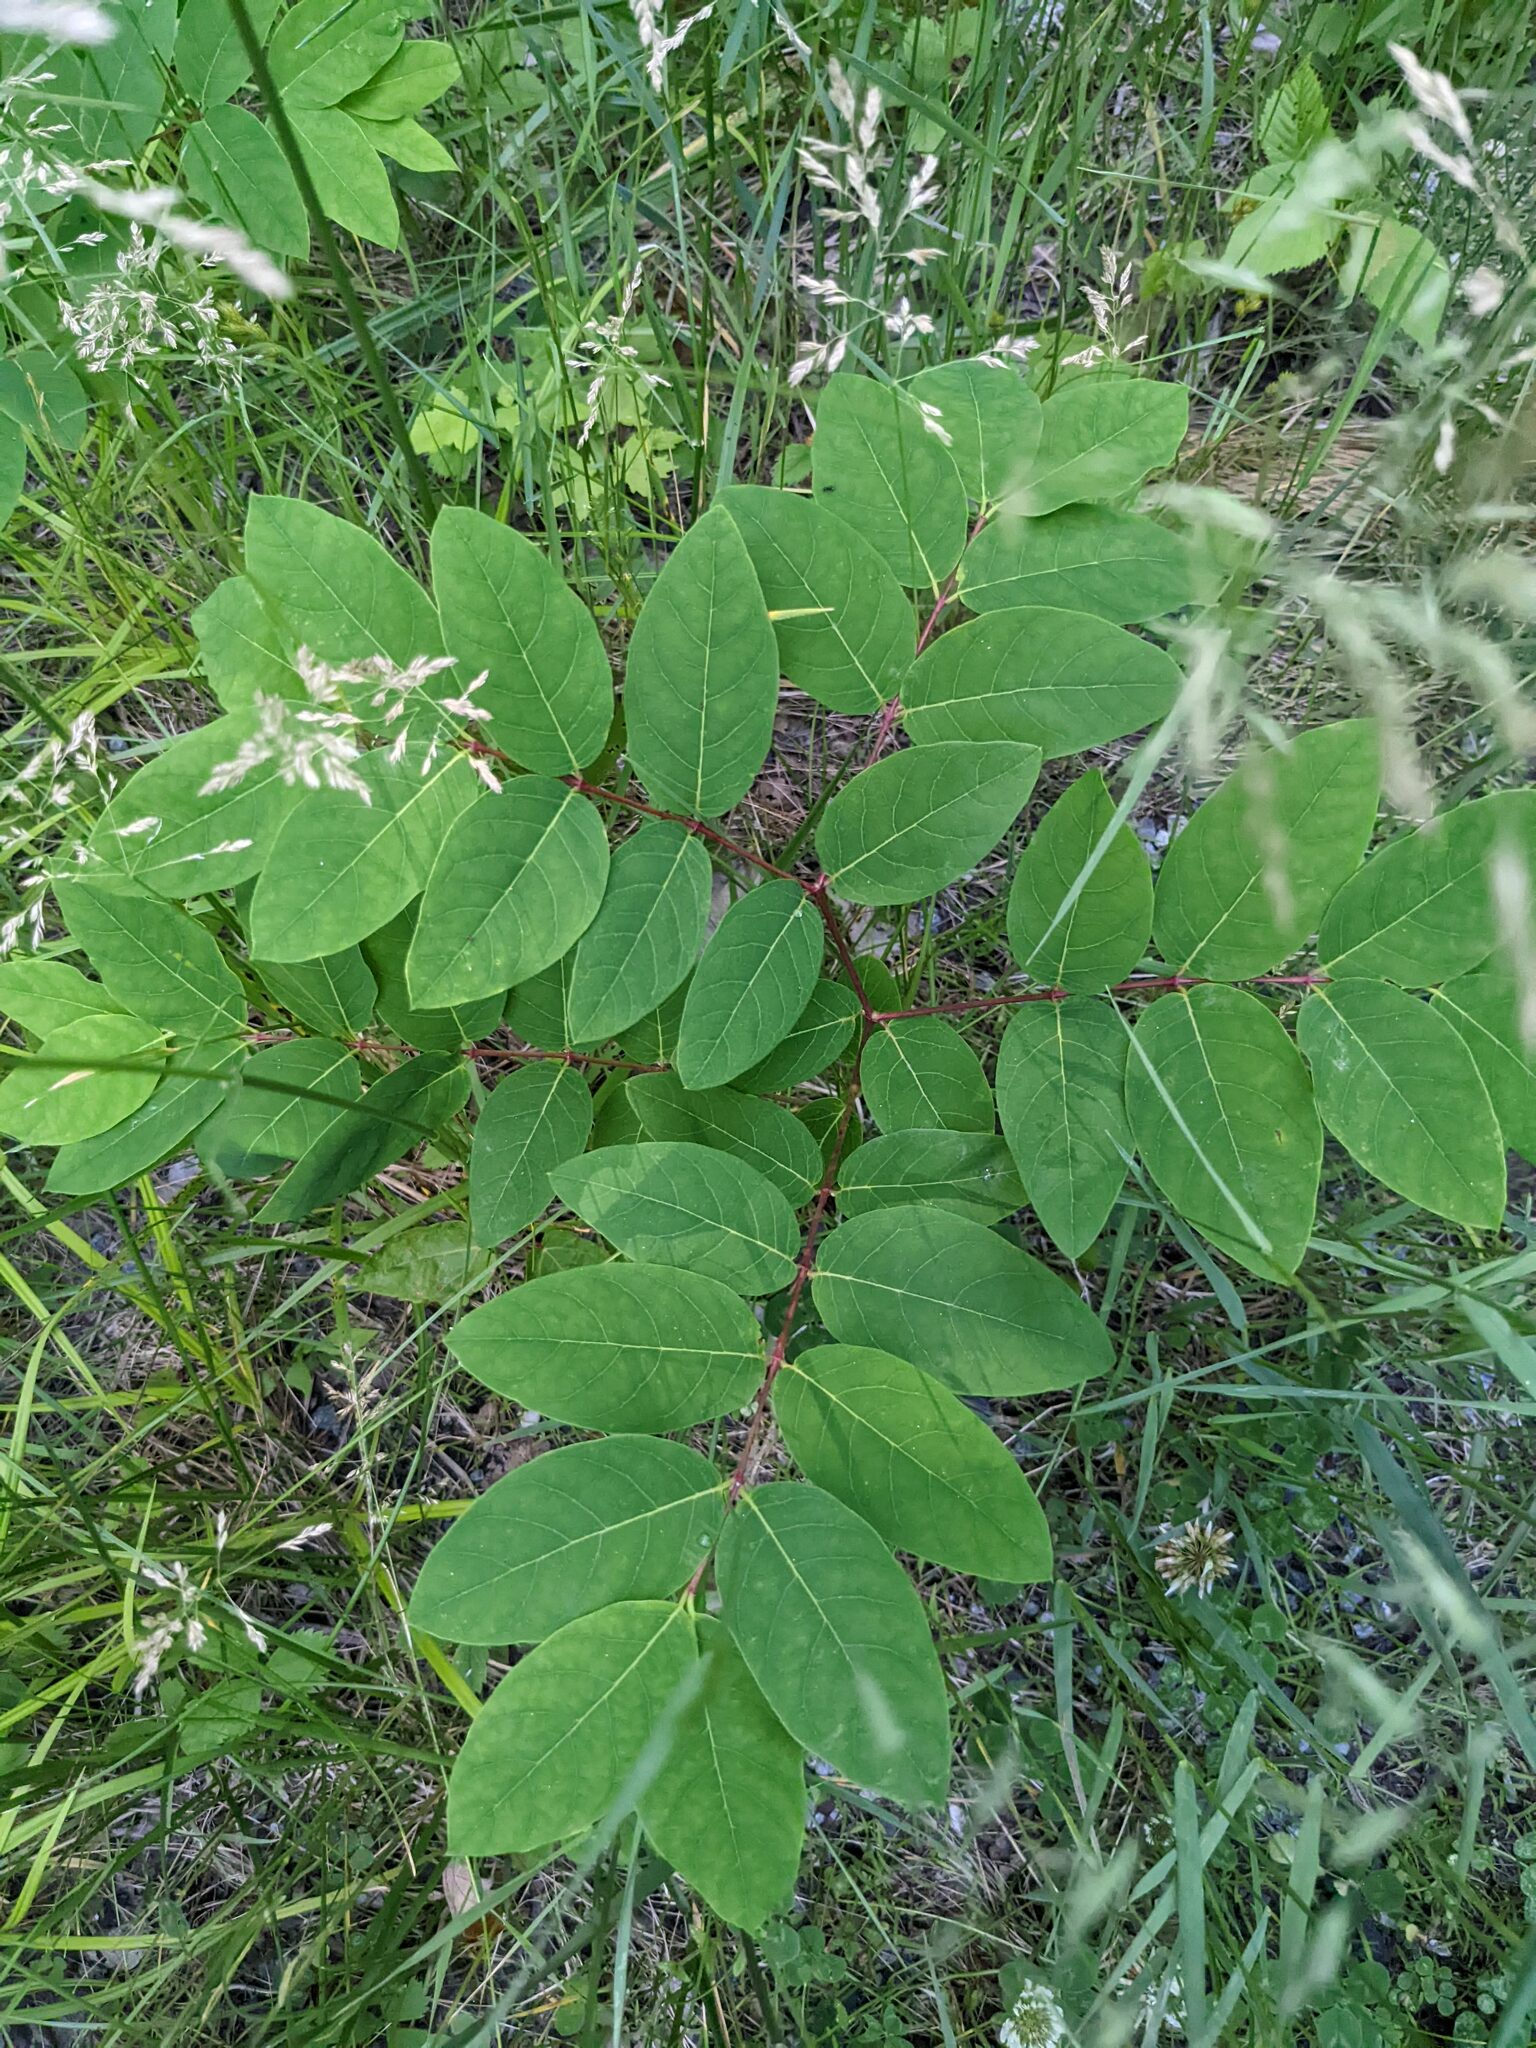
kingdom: Plantae
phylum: Tracheophyta
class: Magnoliopsida
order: Gentianales
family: Apocynaceae
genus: Apocynum
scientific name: Apocynum androsaemifolium
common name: Spreading dogbane
